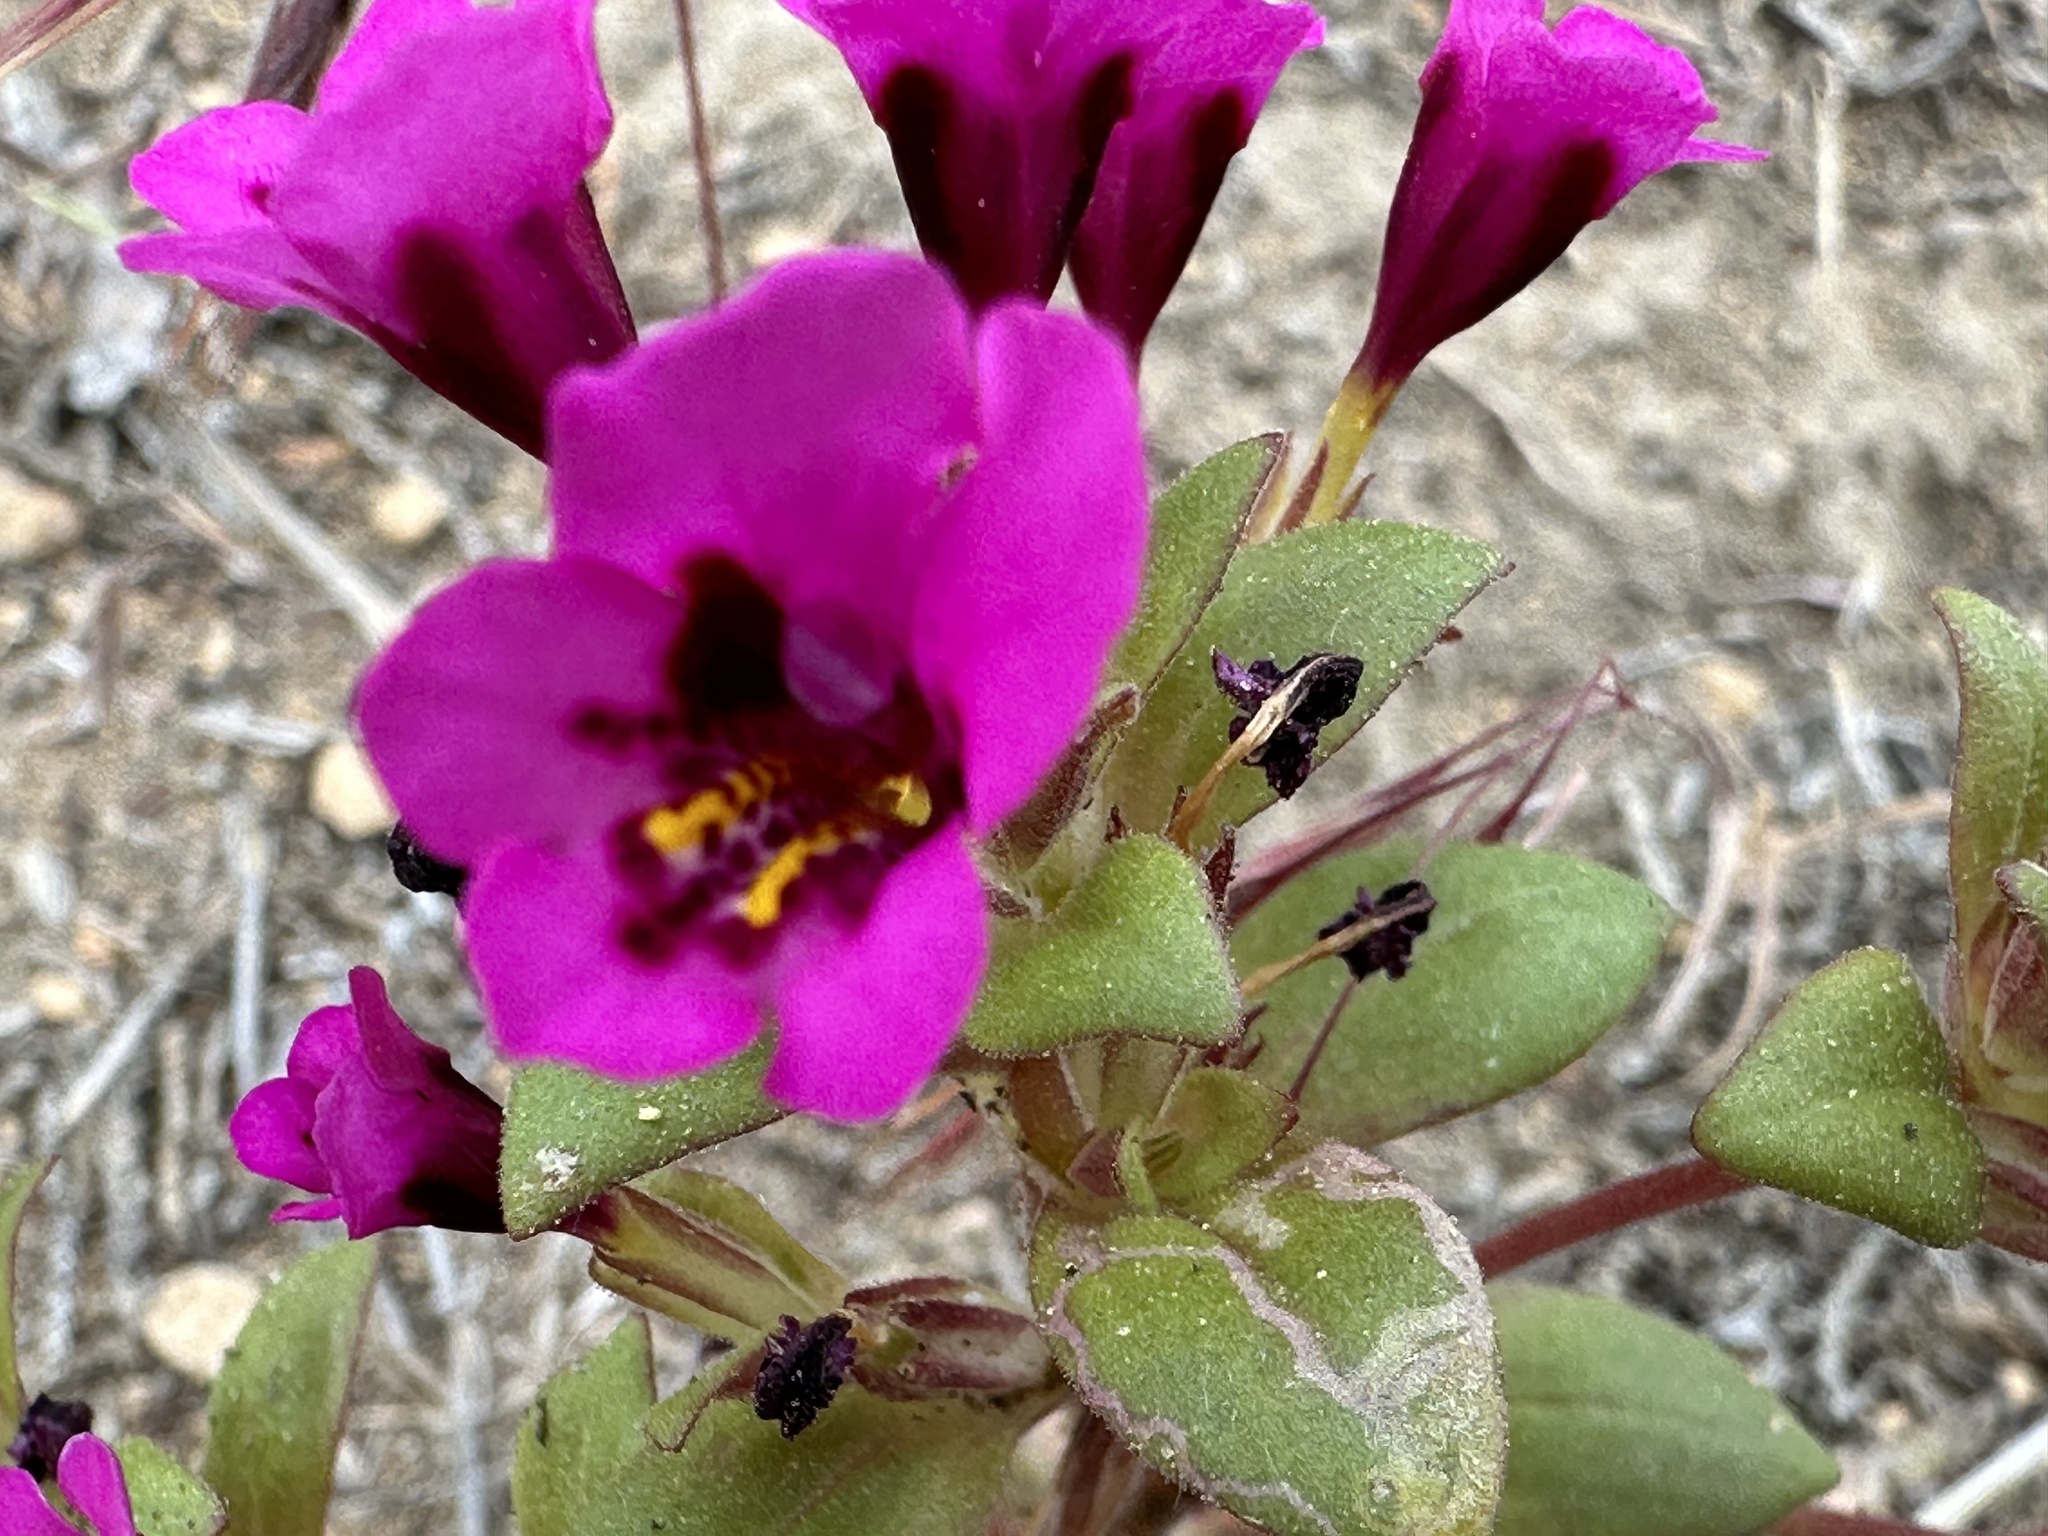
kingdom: Plantae
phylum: Tracheophyta
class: Magnoliopsida
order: Lamiales
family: Phrymaceae
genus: Diplacus
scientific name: Diplacus nanus
